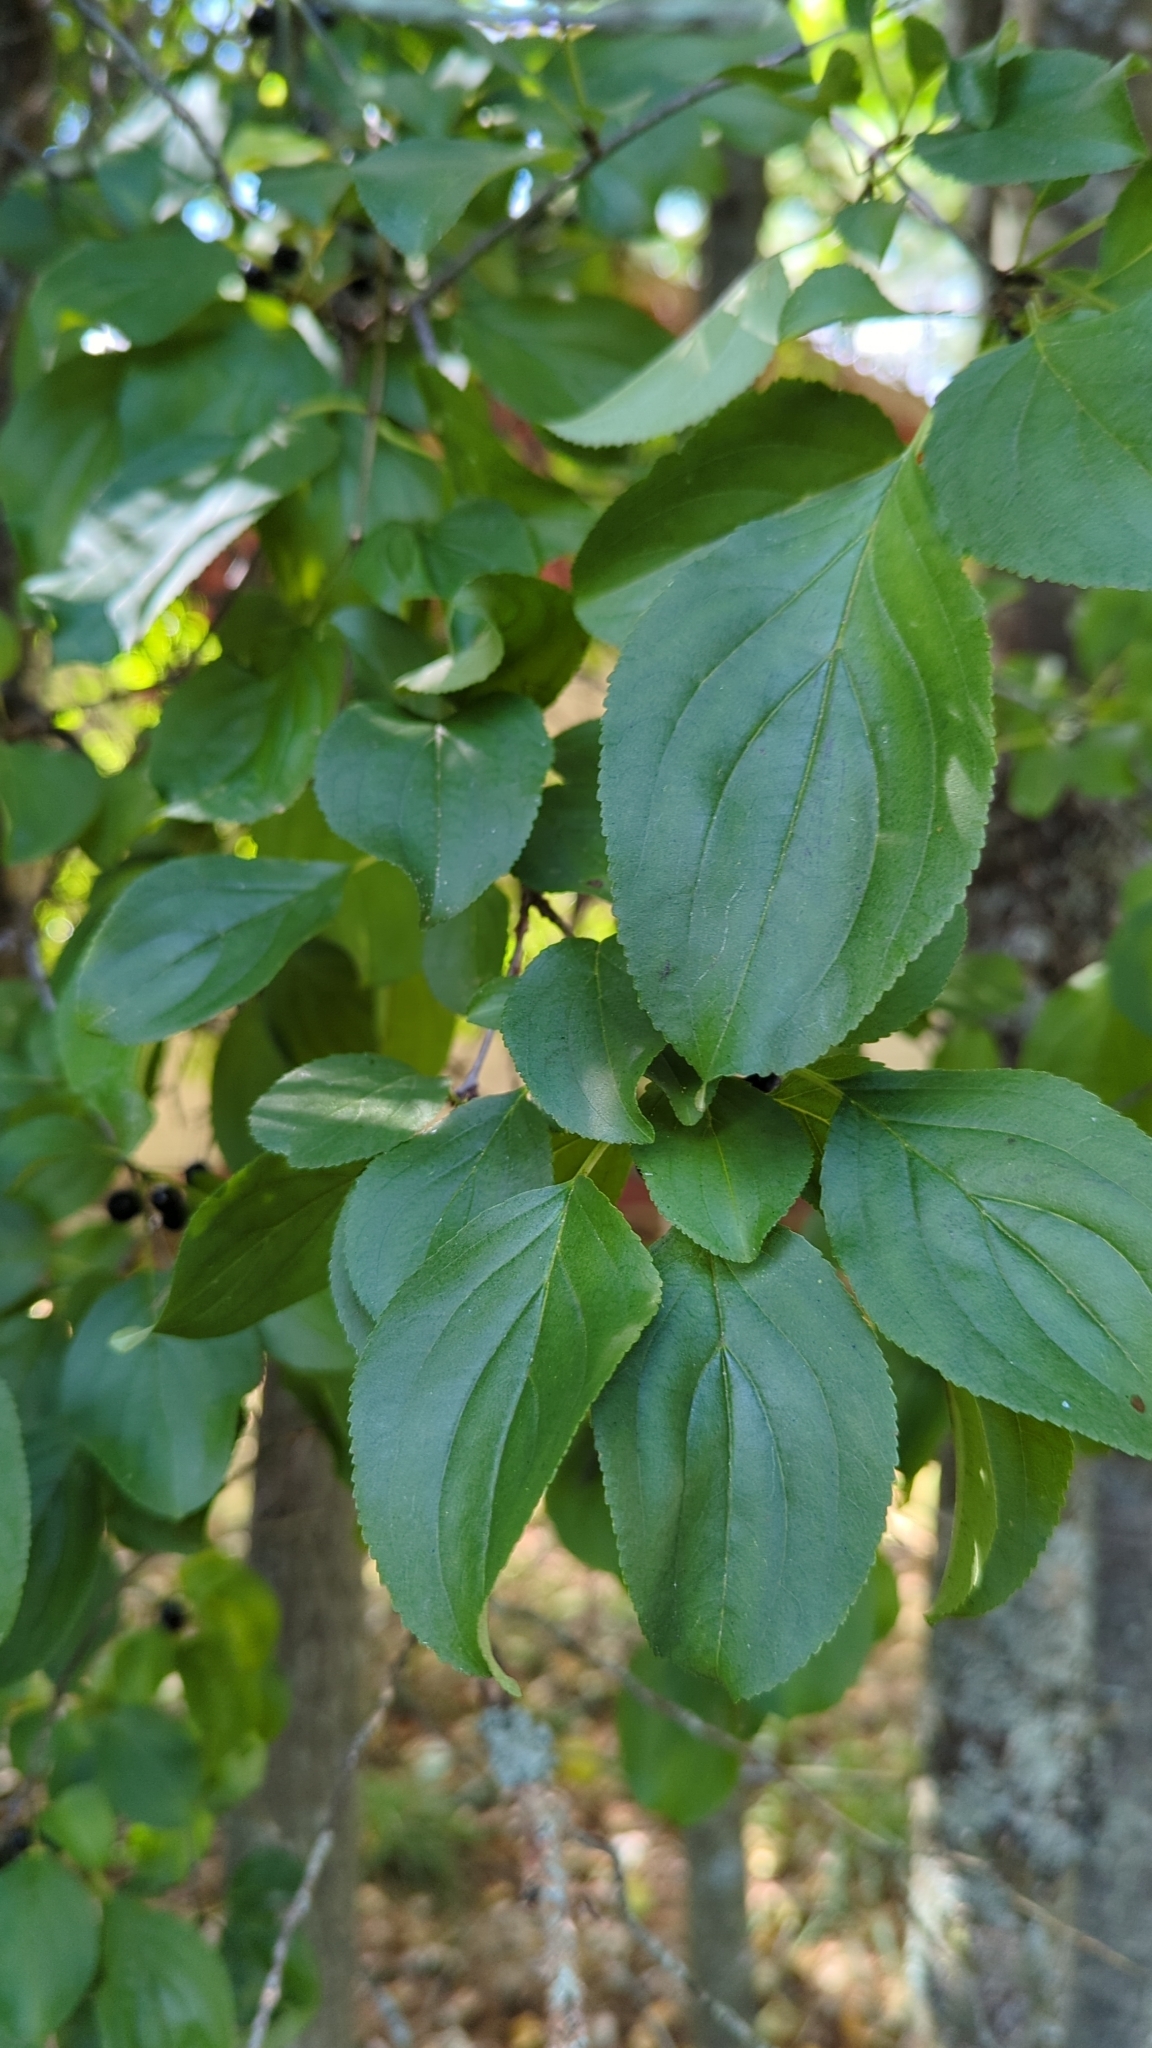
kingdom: Plantae
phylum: Tracheophyta
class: Magnoliopsida
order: Rosales
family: Rhamnaceae
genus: Rhamnus
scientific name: Rhamnus cathartica
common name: Common buckthorn
